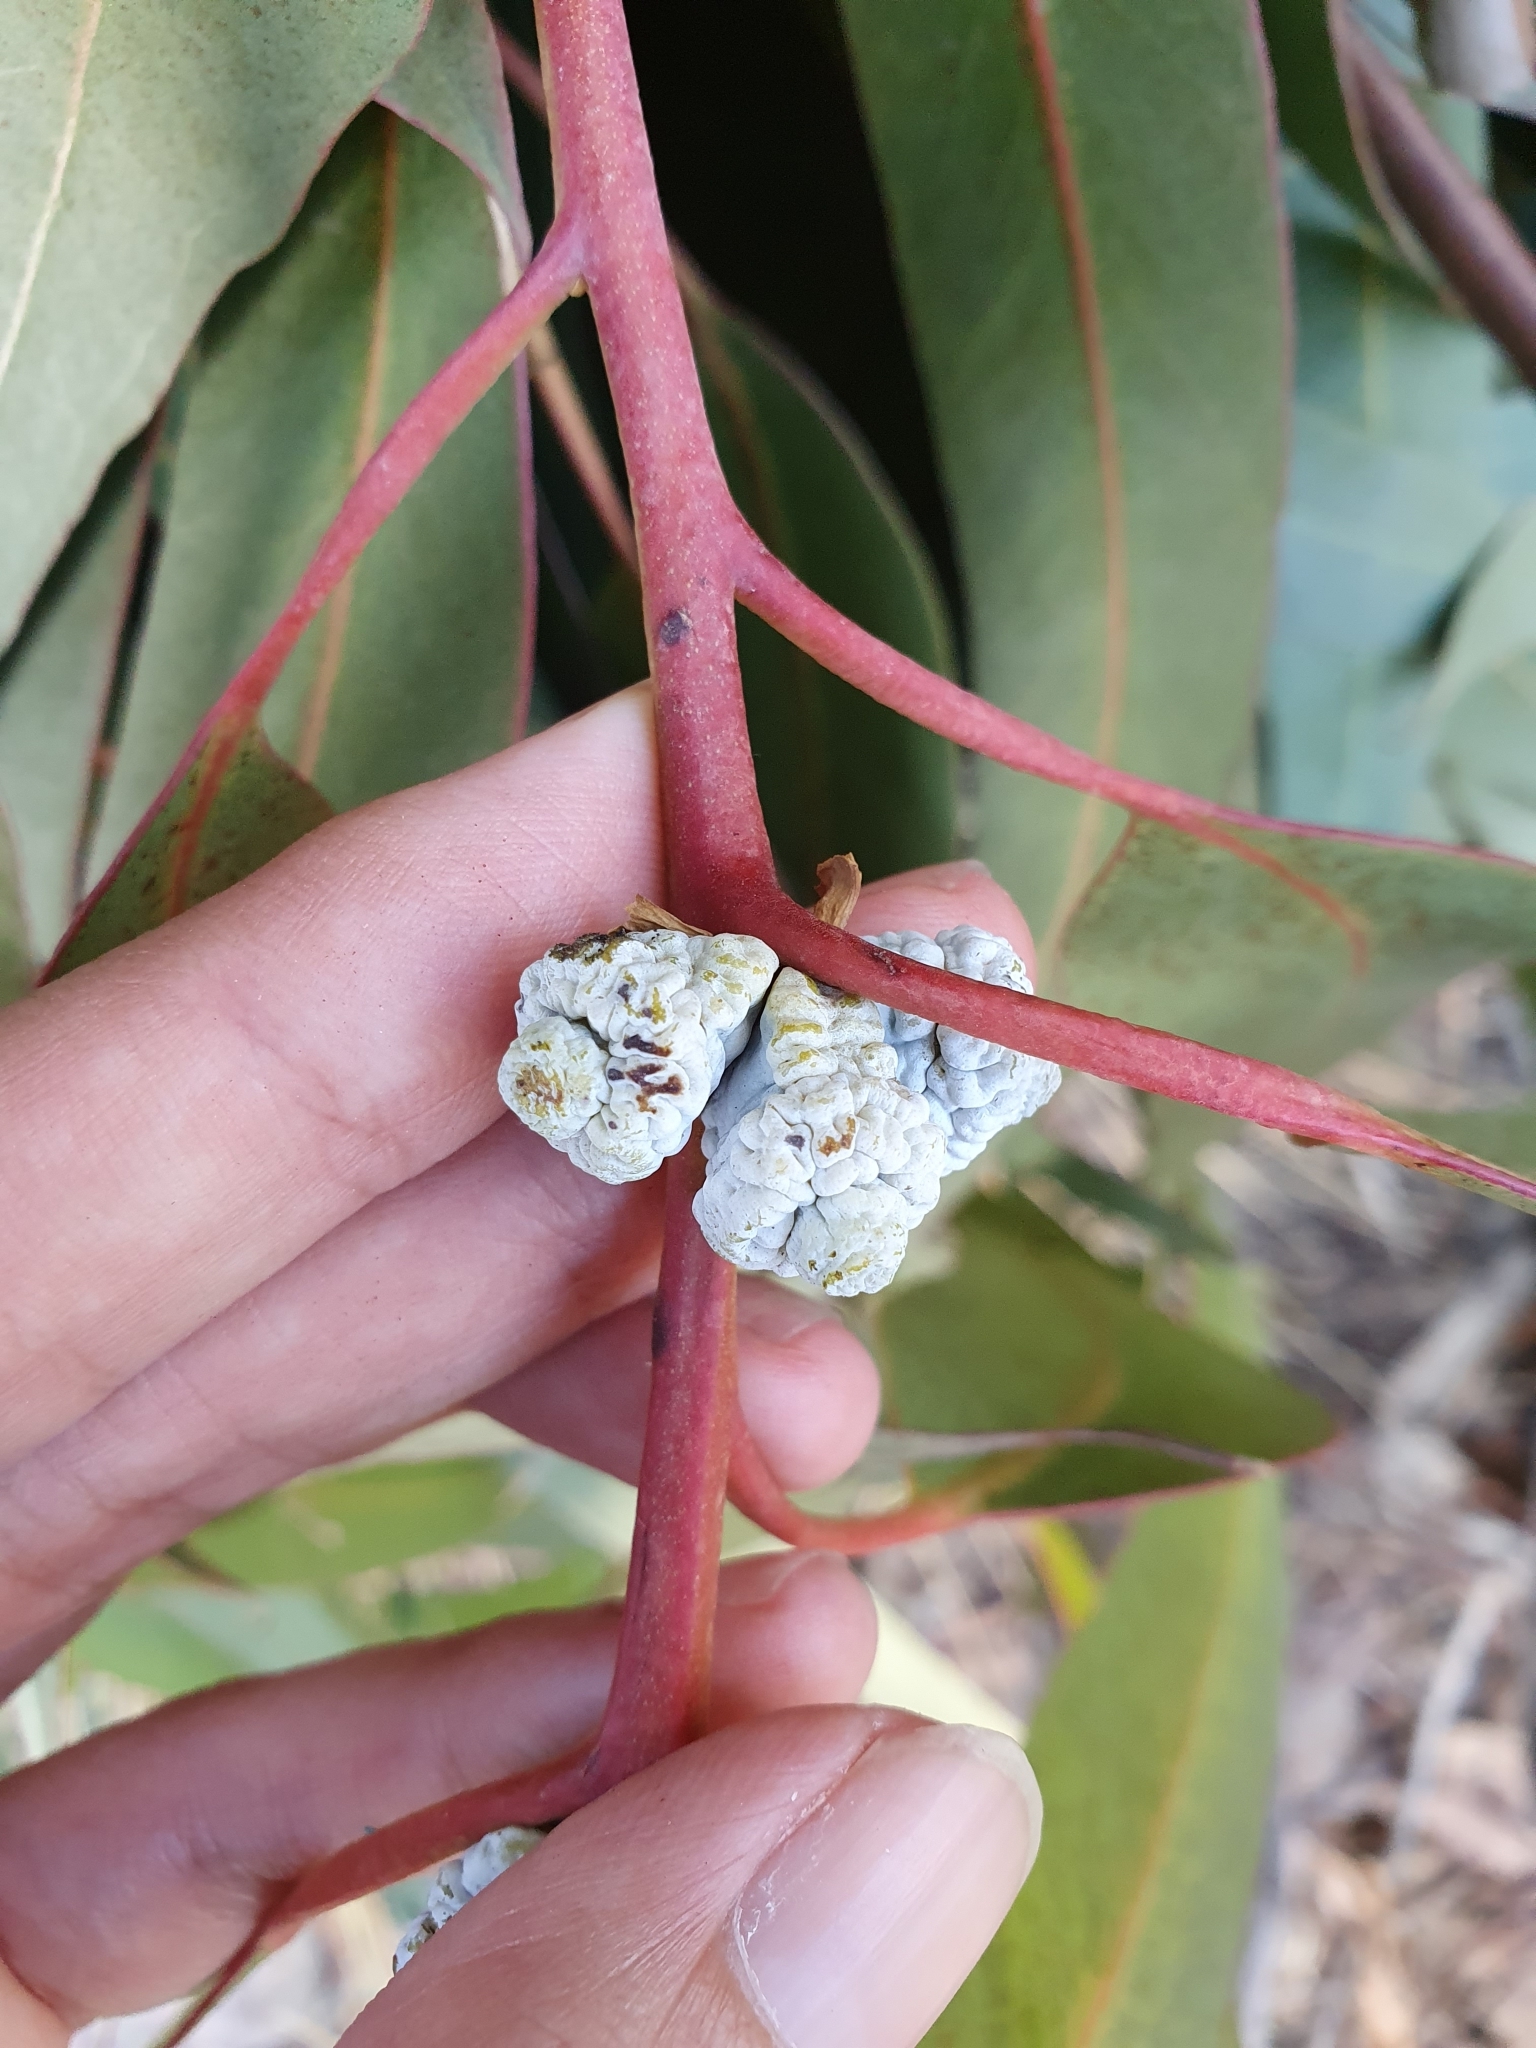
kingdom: Plantae
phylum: Tracheophyta
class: Magnoliopsida
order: Myrtales
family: Myrtaceae
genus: Eucalyptus
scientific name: Eucalyptus globulus
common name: Southern blue-gum
